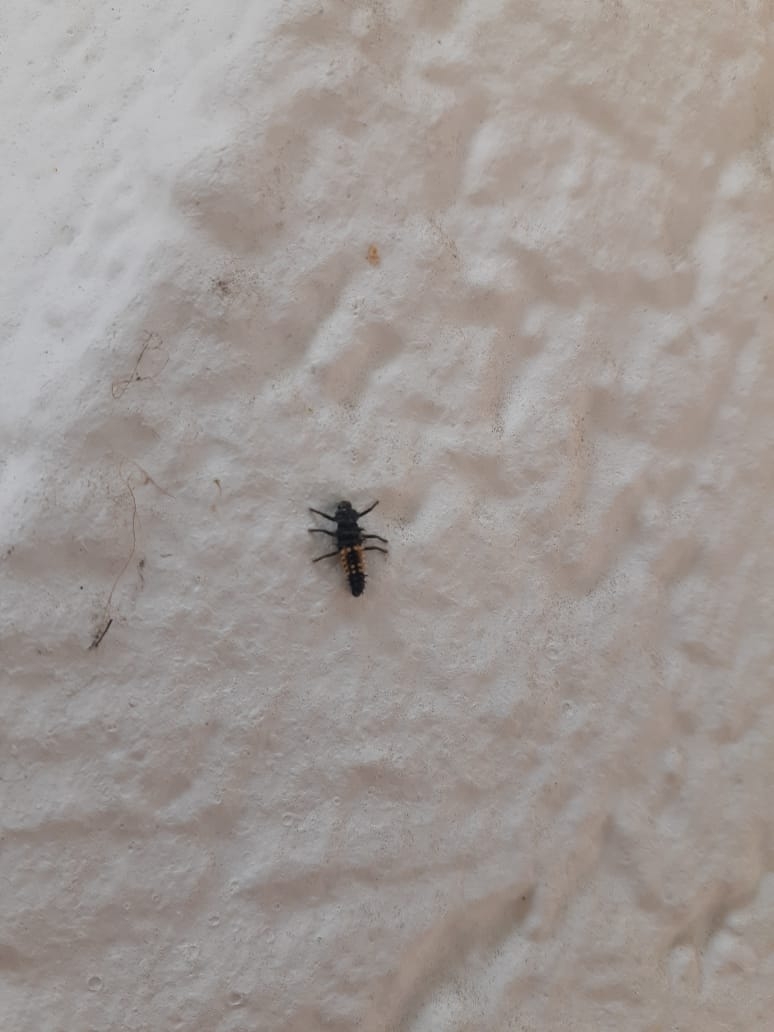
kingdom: Animalia
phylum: Arthropoda
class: Insecta
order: Coleoptera
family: Coccinellidae
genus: Harmonia
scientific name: Harmonia axyridis
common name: Harlequin ladybird
